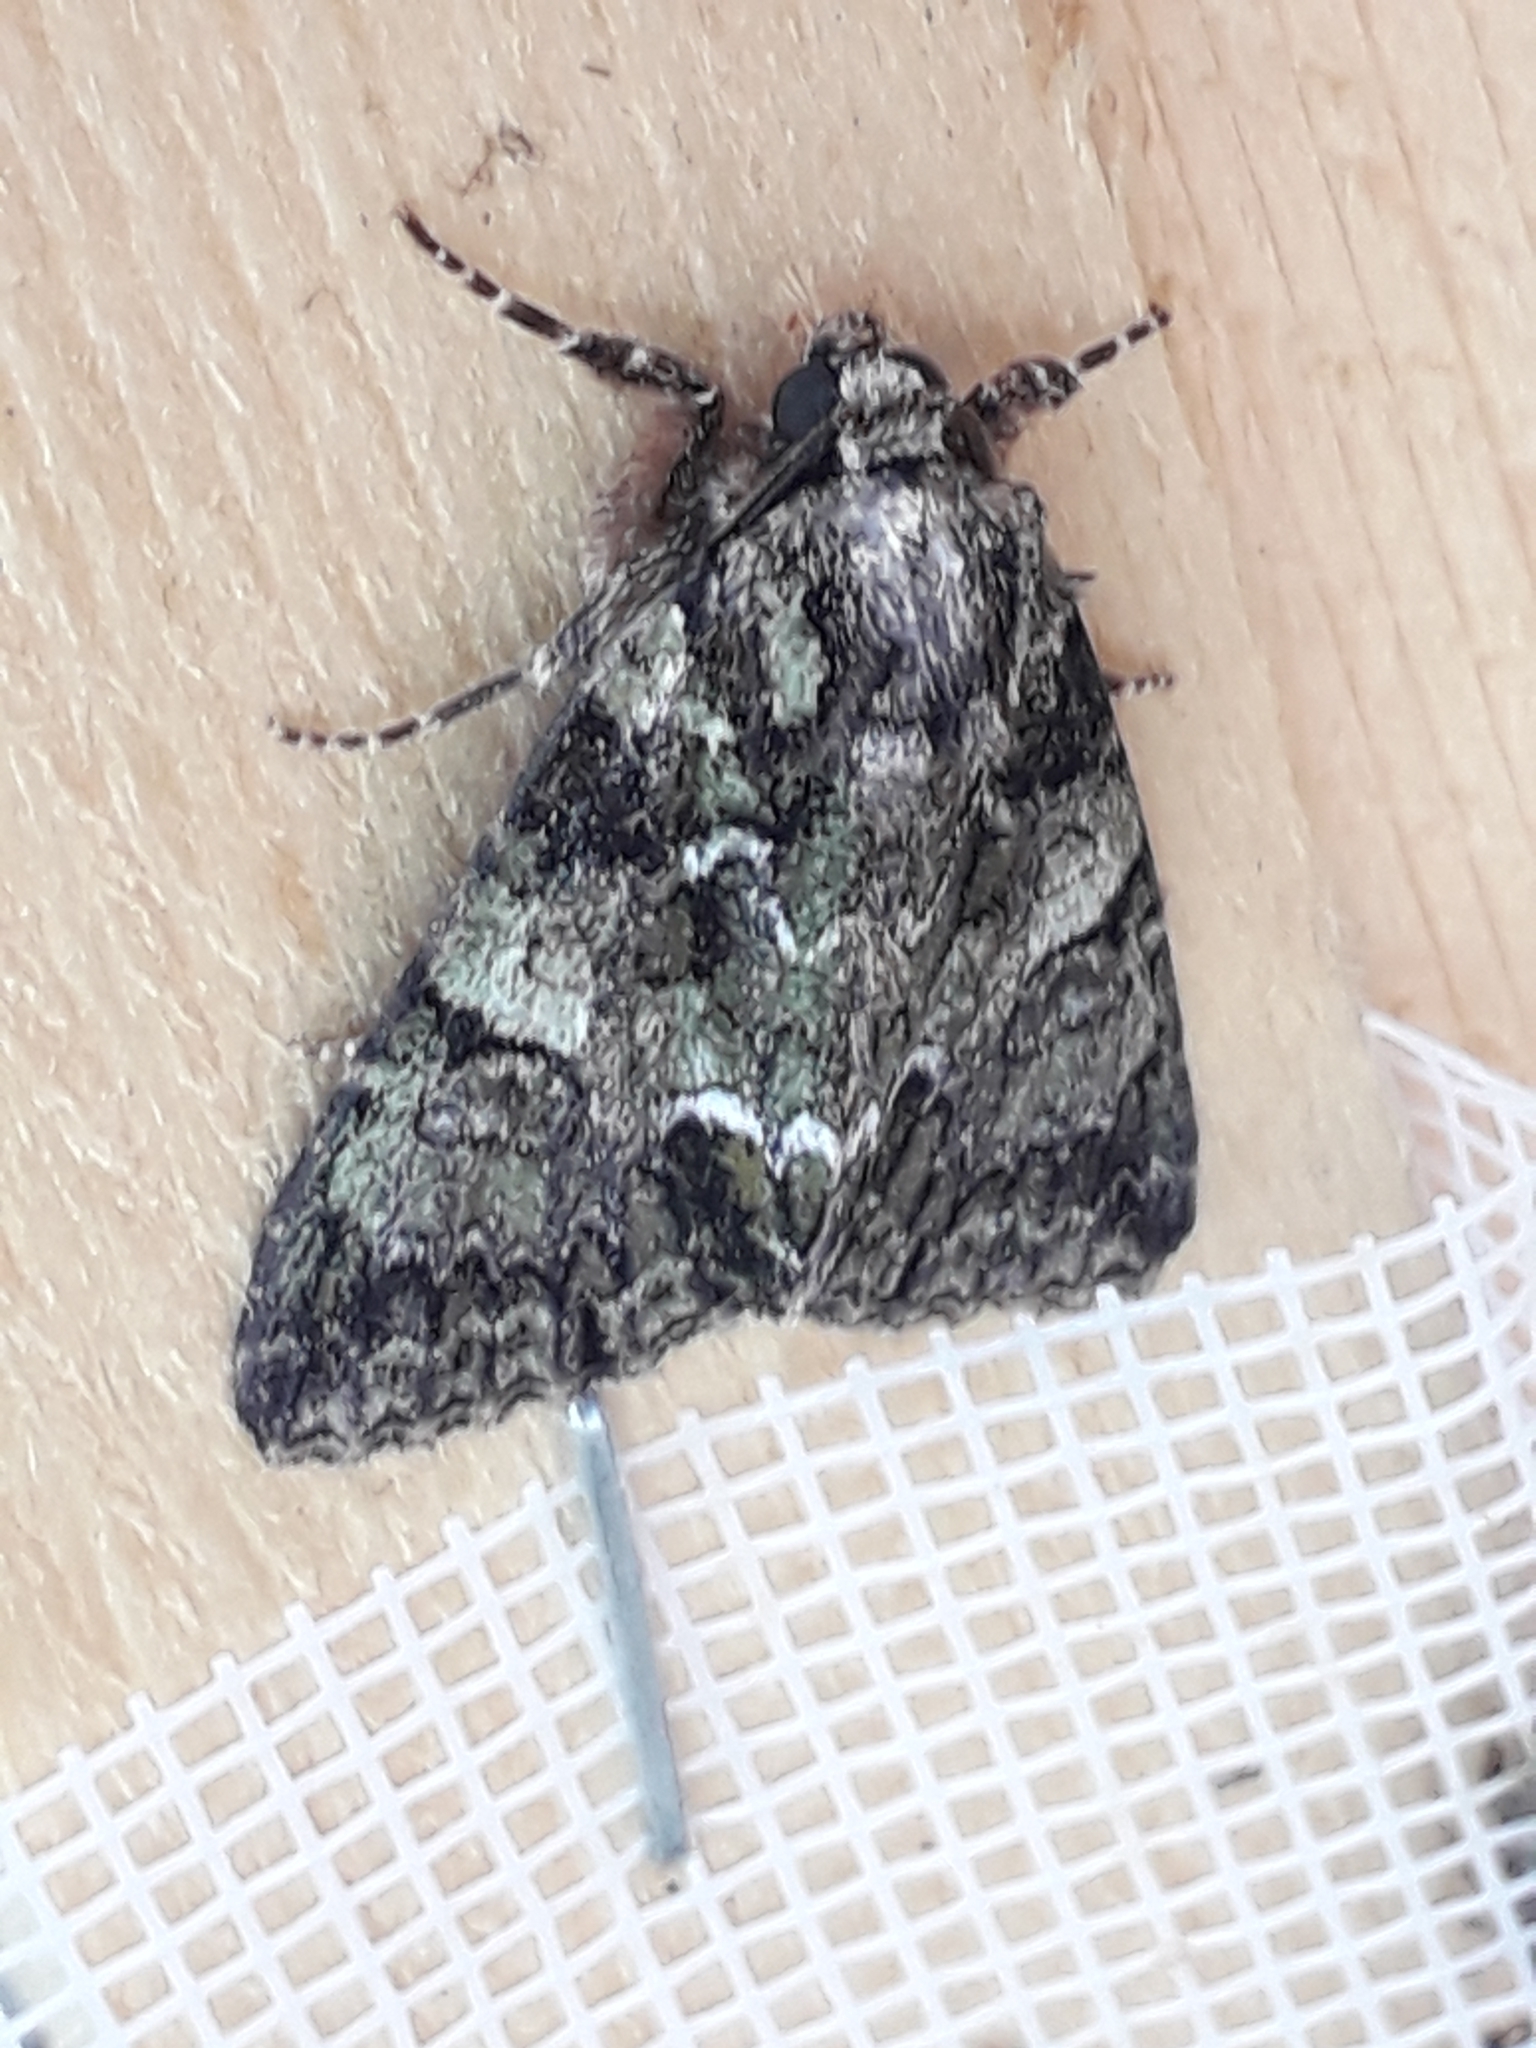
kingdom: Animalia
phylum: Arthropoda
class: Insecta
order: Lepidoptera
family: Noctuidae
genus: Polyphaenis
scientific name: Polyphaenis sericata
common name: Guernsey underwing
